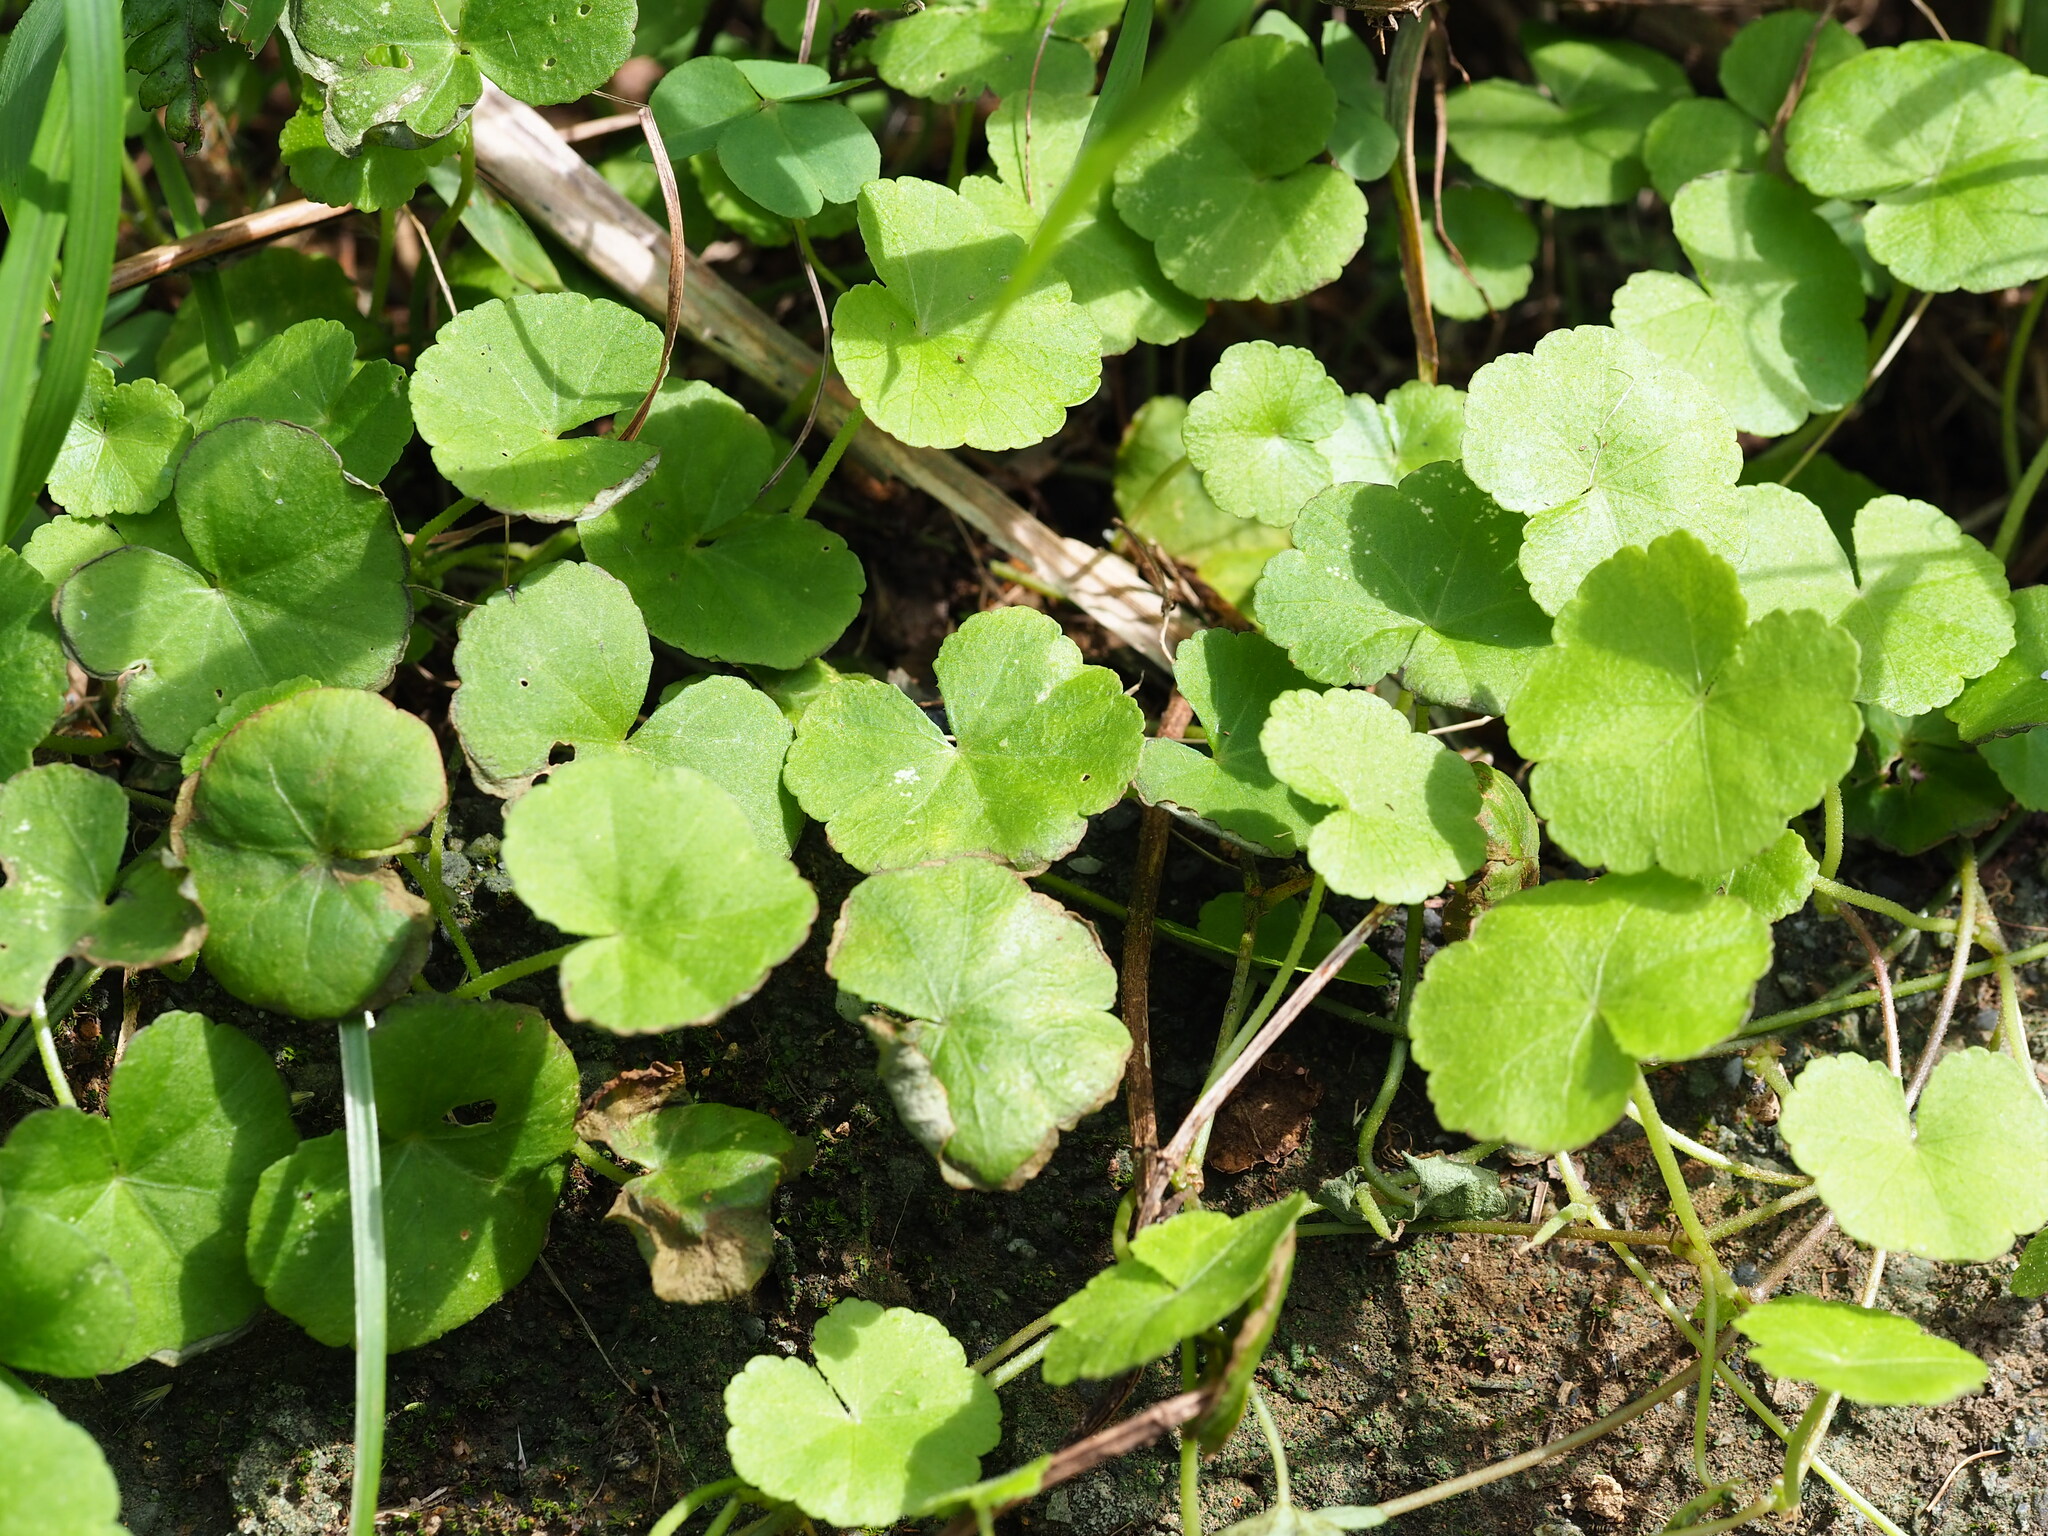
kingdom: Plantae
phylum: Tracheophyta
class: Magnoliopsida
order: Apiales
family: Araliaceae
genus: Hydrocotyle
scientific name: Hydrocotyle sibthorpioides
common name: Lawn marshpennywort
